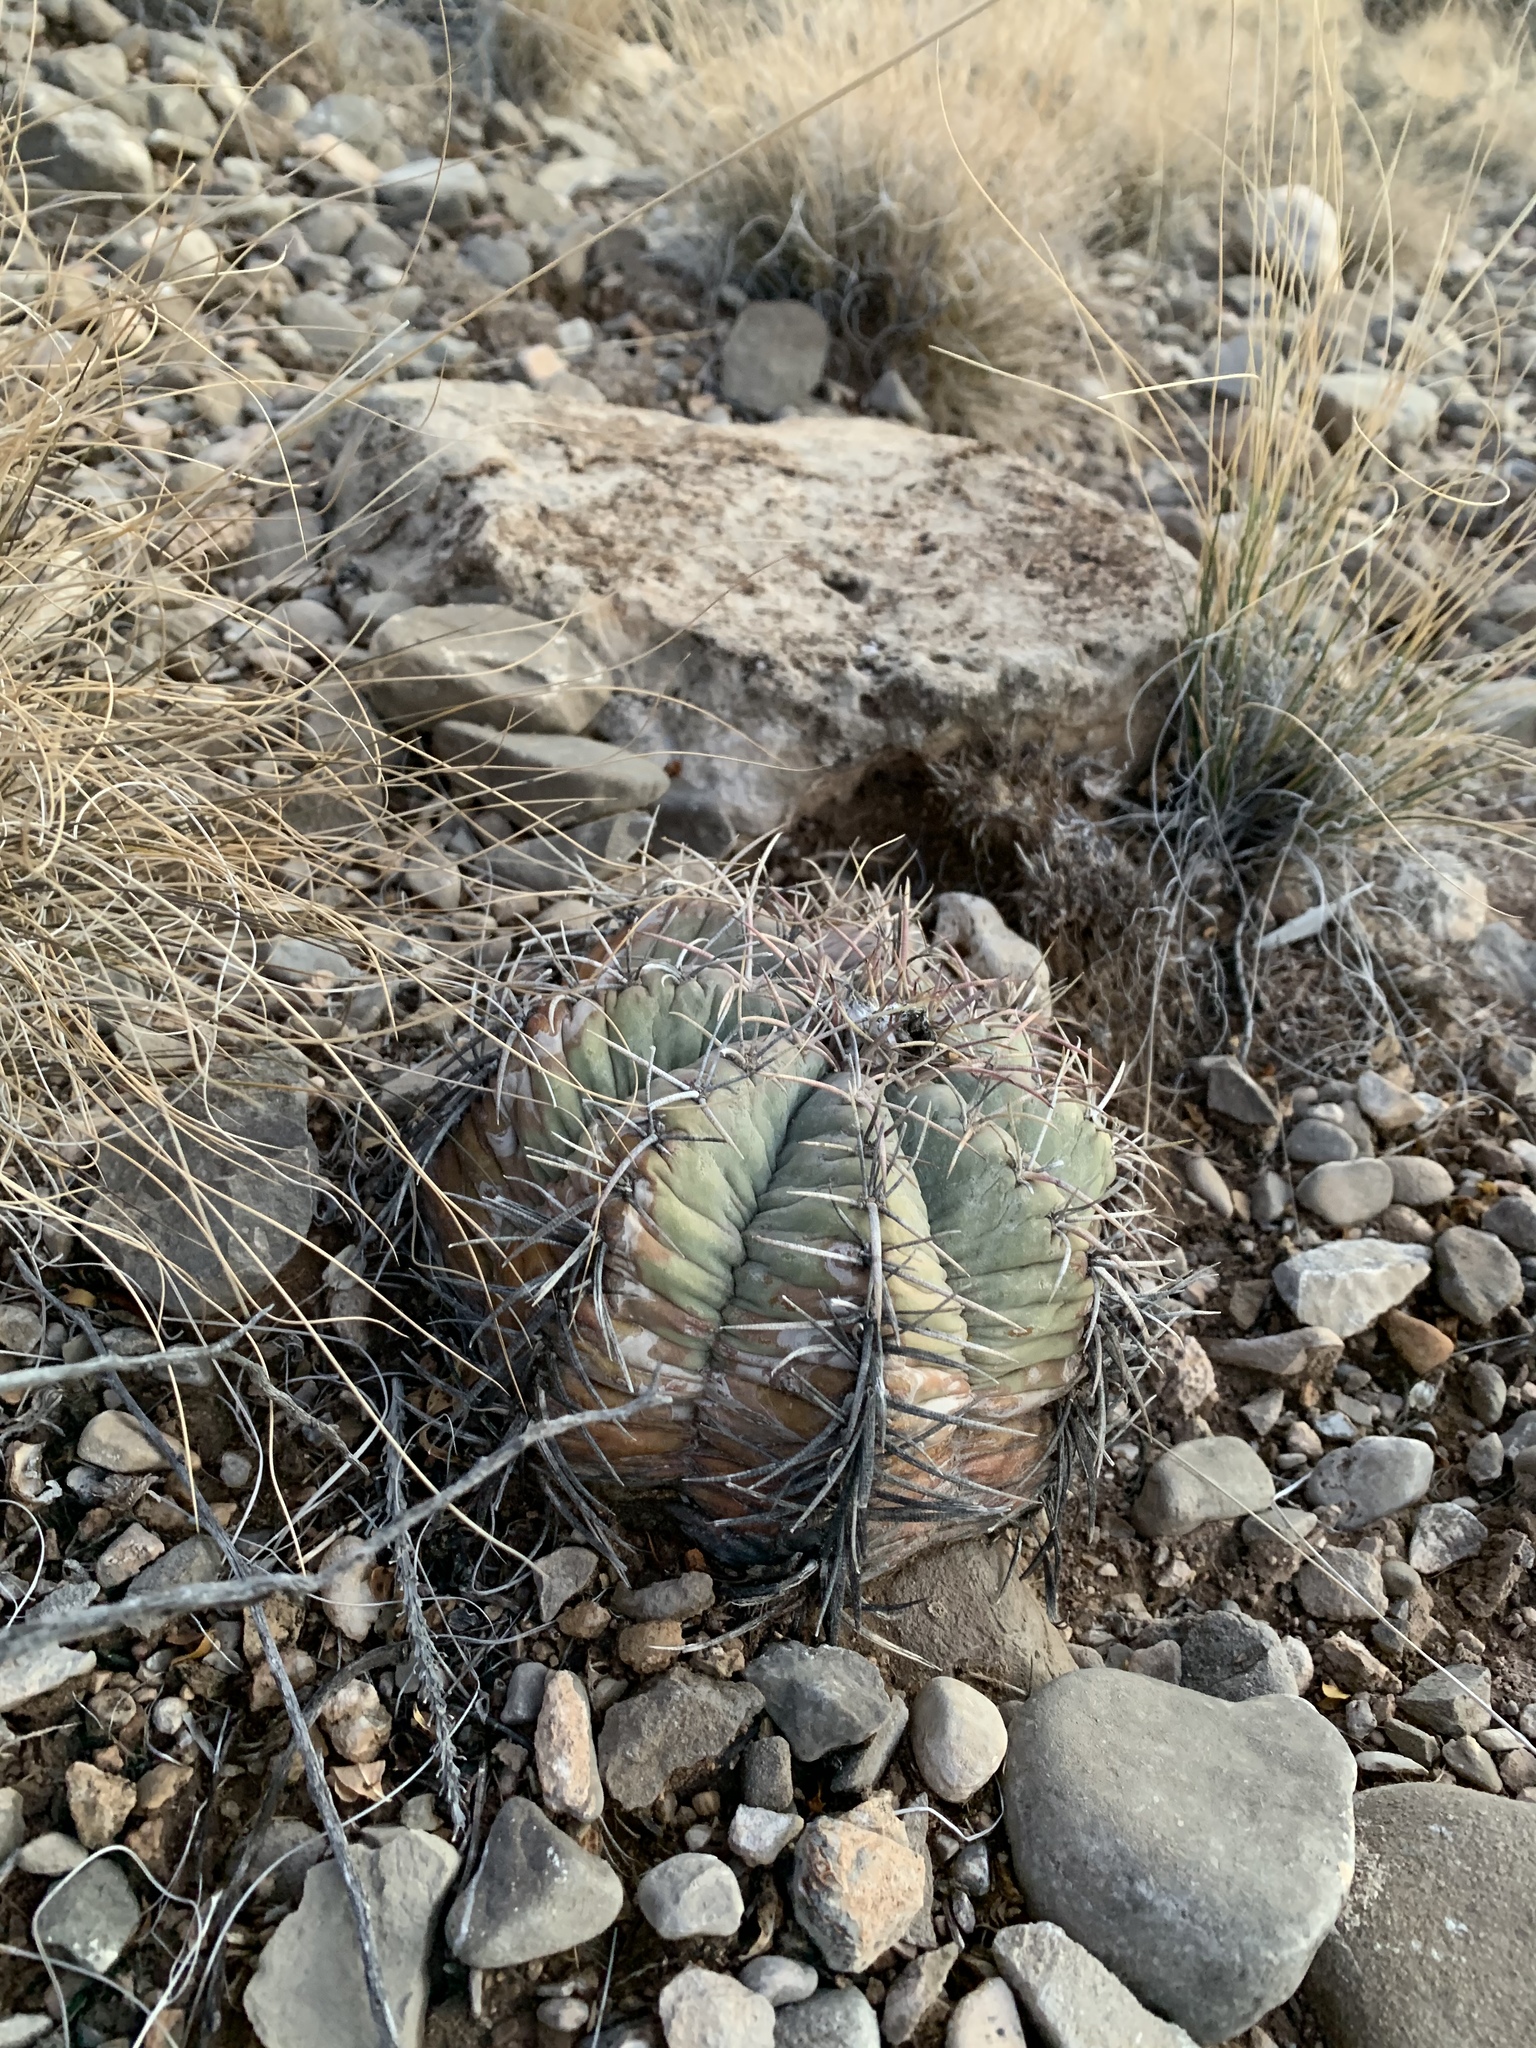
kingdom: Plantae
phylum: Tracheophyta
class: Magnoliopsida
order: Caryophyllales
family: Cactaceae
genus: Echinocactus
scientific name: Echinocactus horizonthalonius
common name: Devilshead
